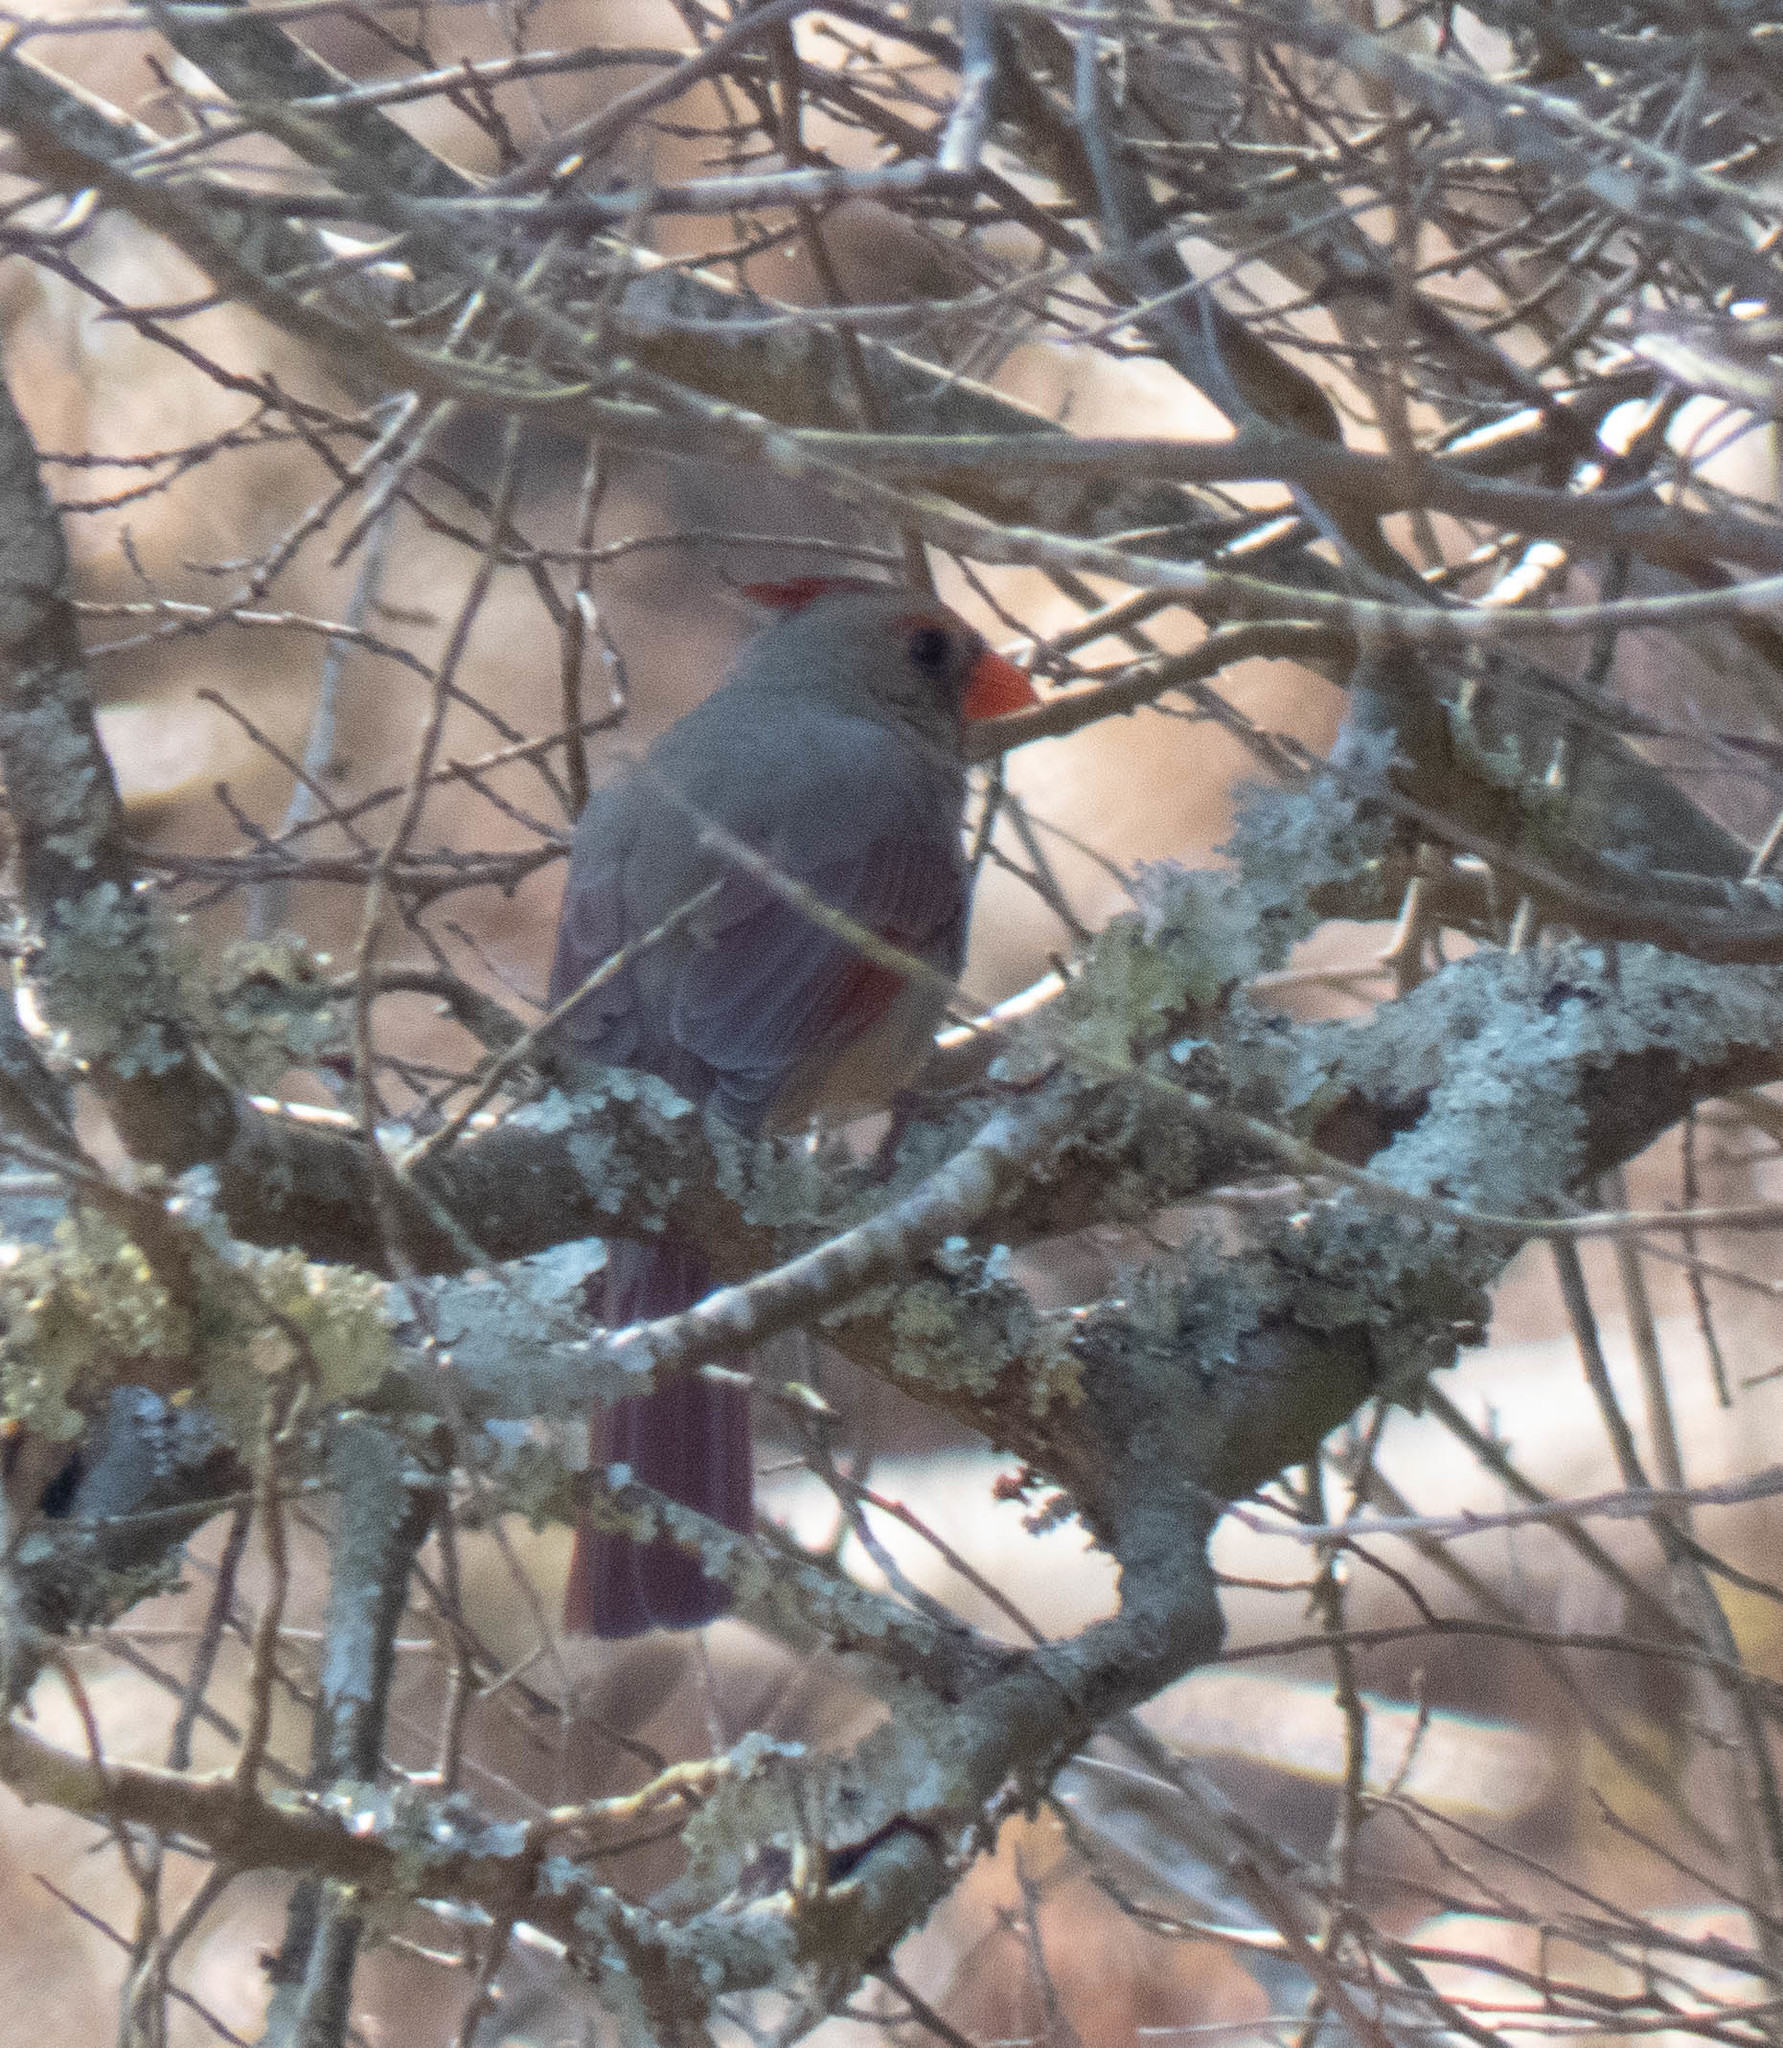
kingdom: Animalia
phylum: Chordata
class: Aves
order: Passeriformes
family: Cardinalidae
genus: Cardinalis
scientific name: Cardinalis cardinalis
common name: Northern cardinal
